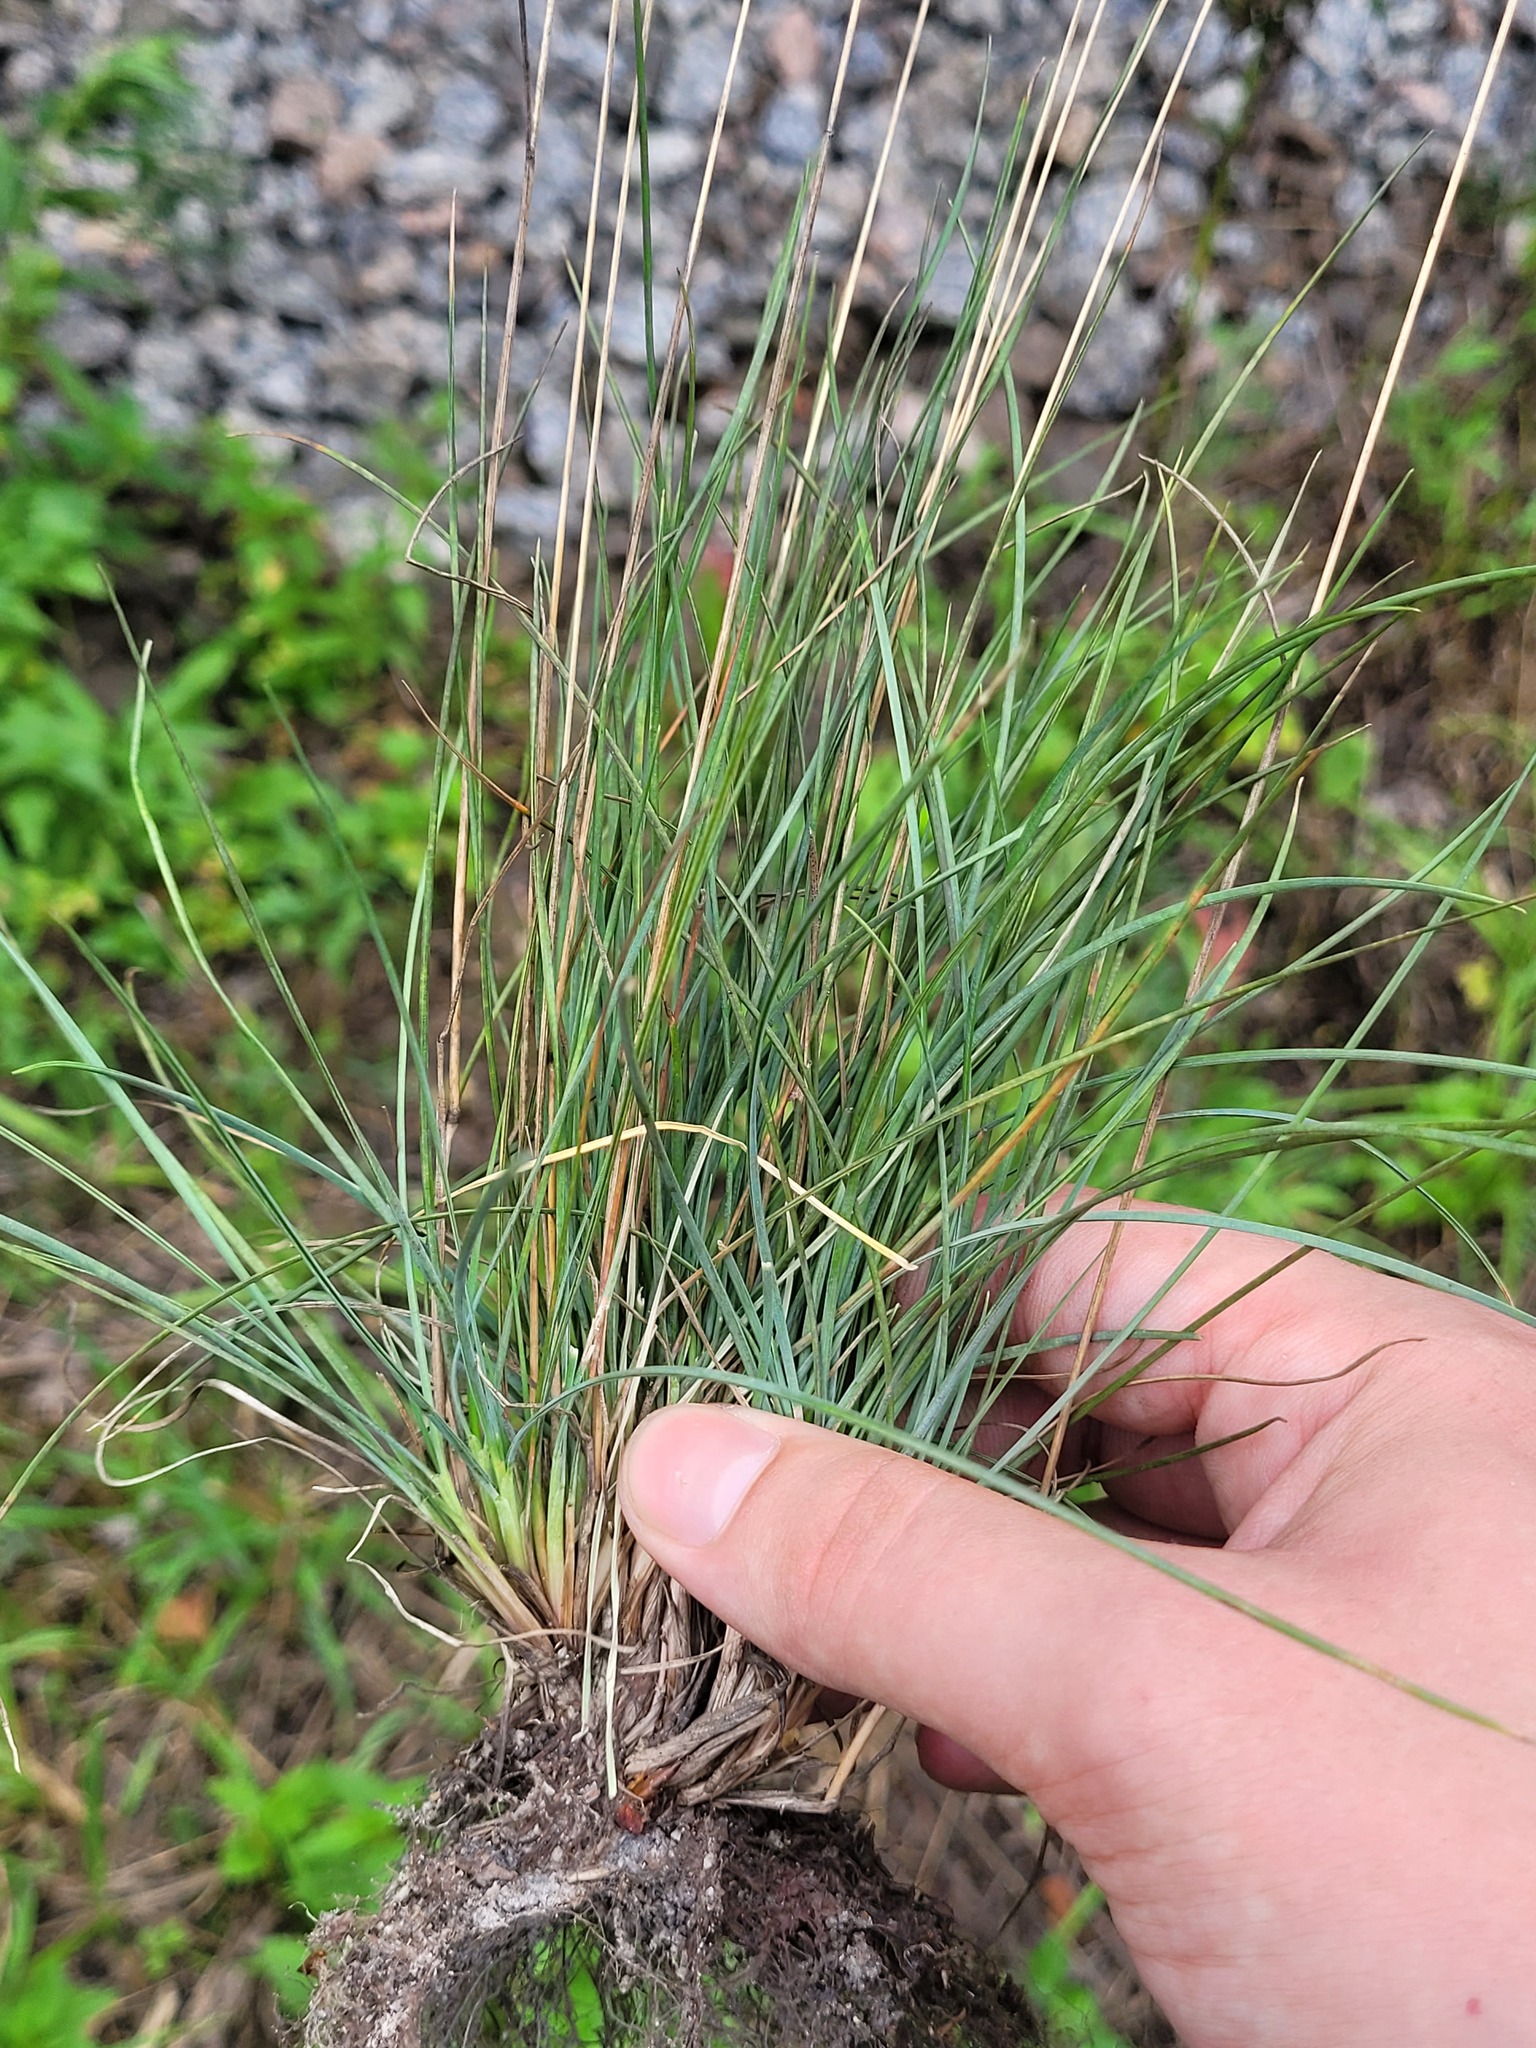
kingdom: Plantae
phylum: Tracheophyta
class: Liliopsida
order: Poales
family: Poaceae
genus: Festuca
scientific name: Festuca trachyphylla
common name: Hard fescue
